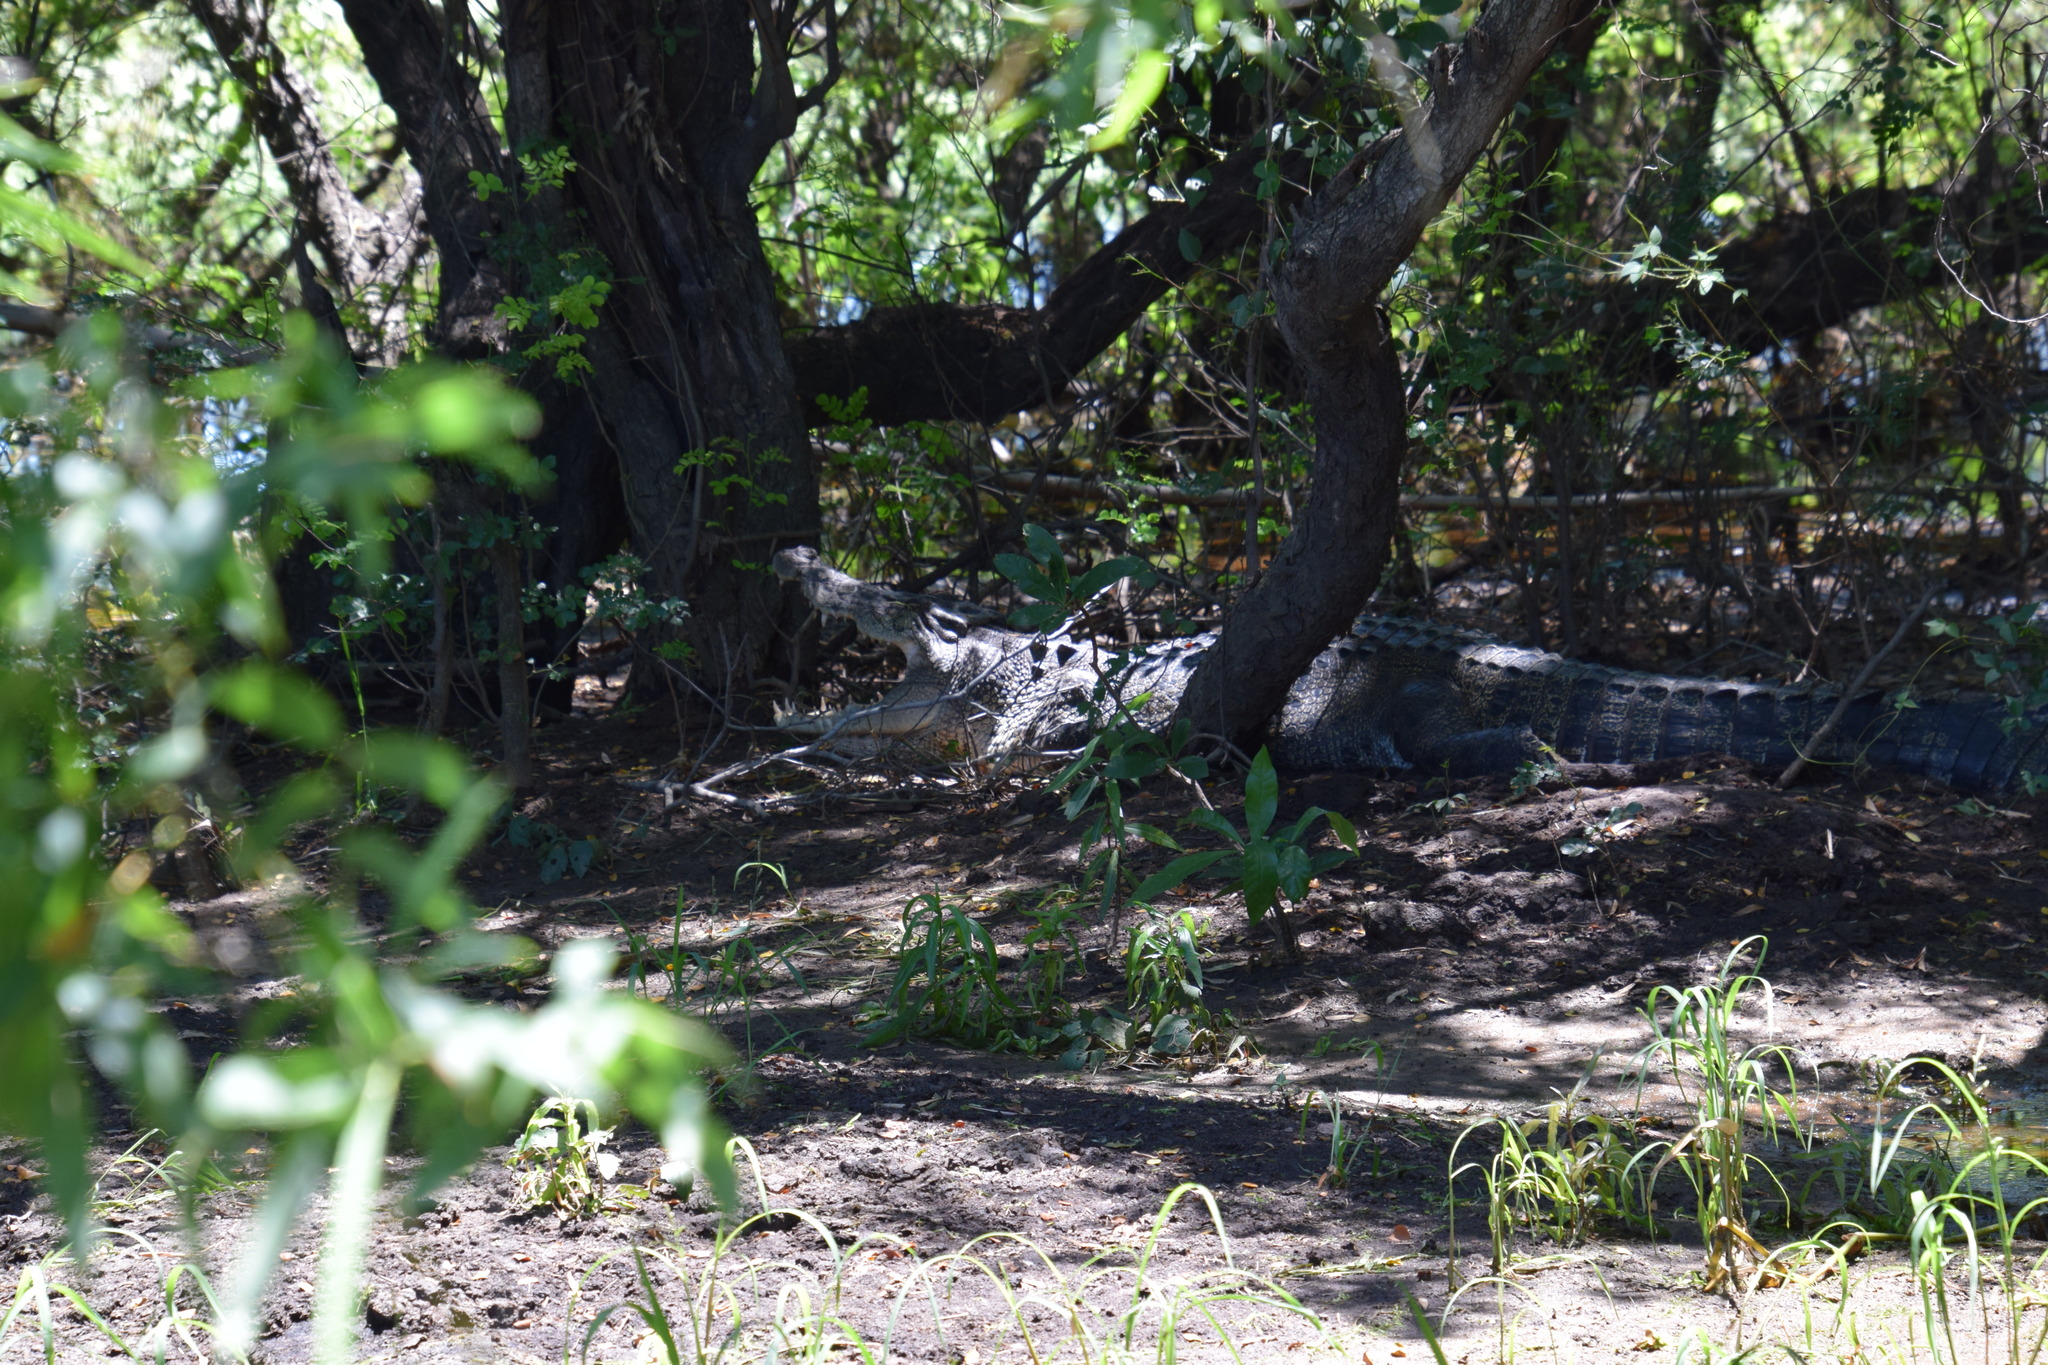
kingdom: Animalia
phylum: Chordata
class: Crocodylia
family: Crocodylidae
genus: Crocodylus
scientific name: Crocodylus porosus
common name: Saltwater crocodile
